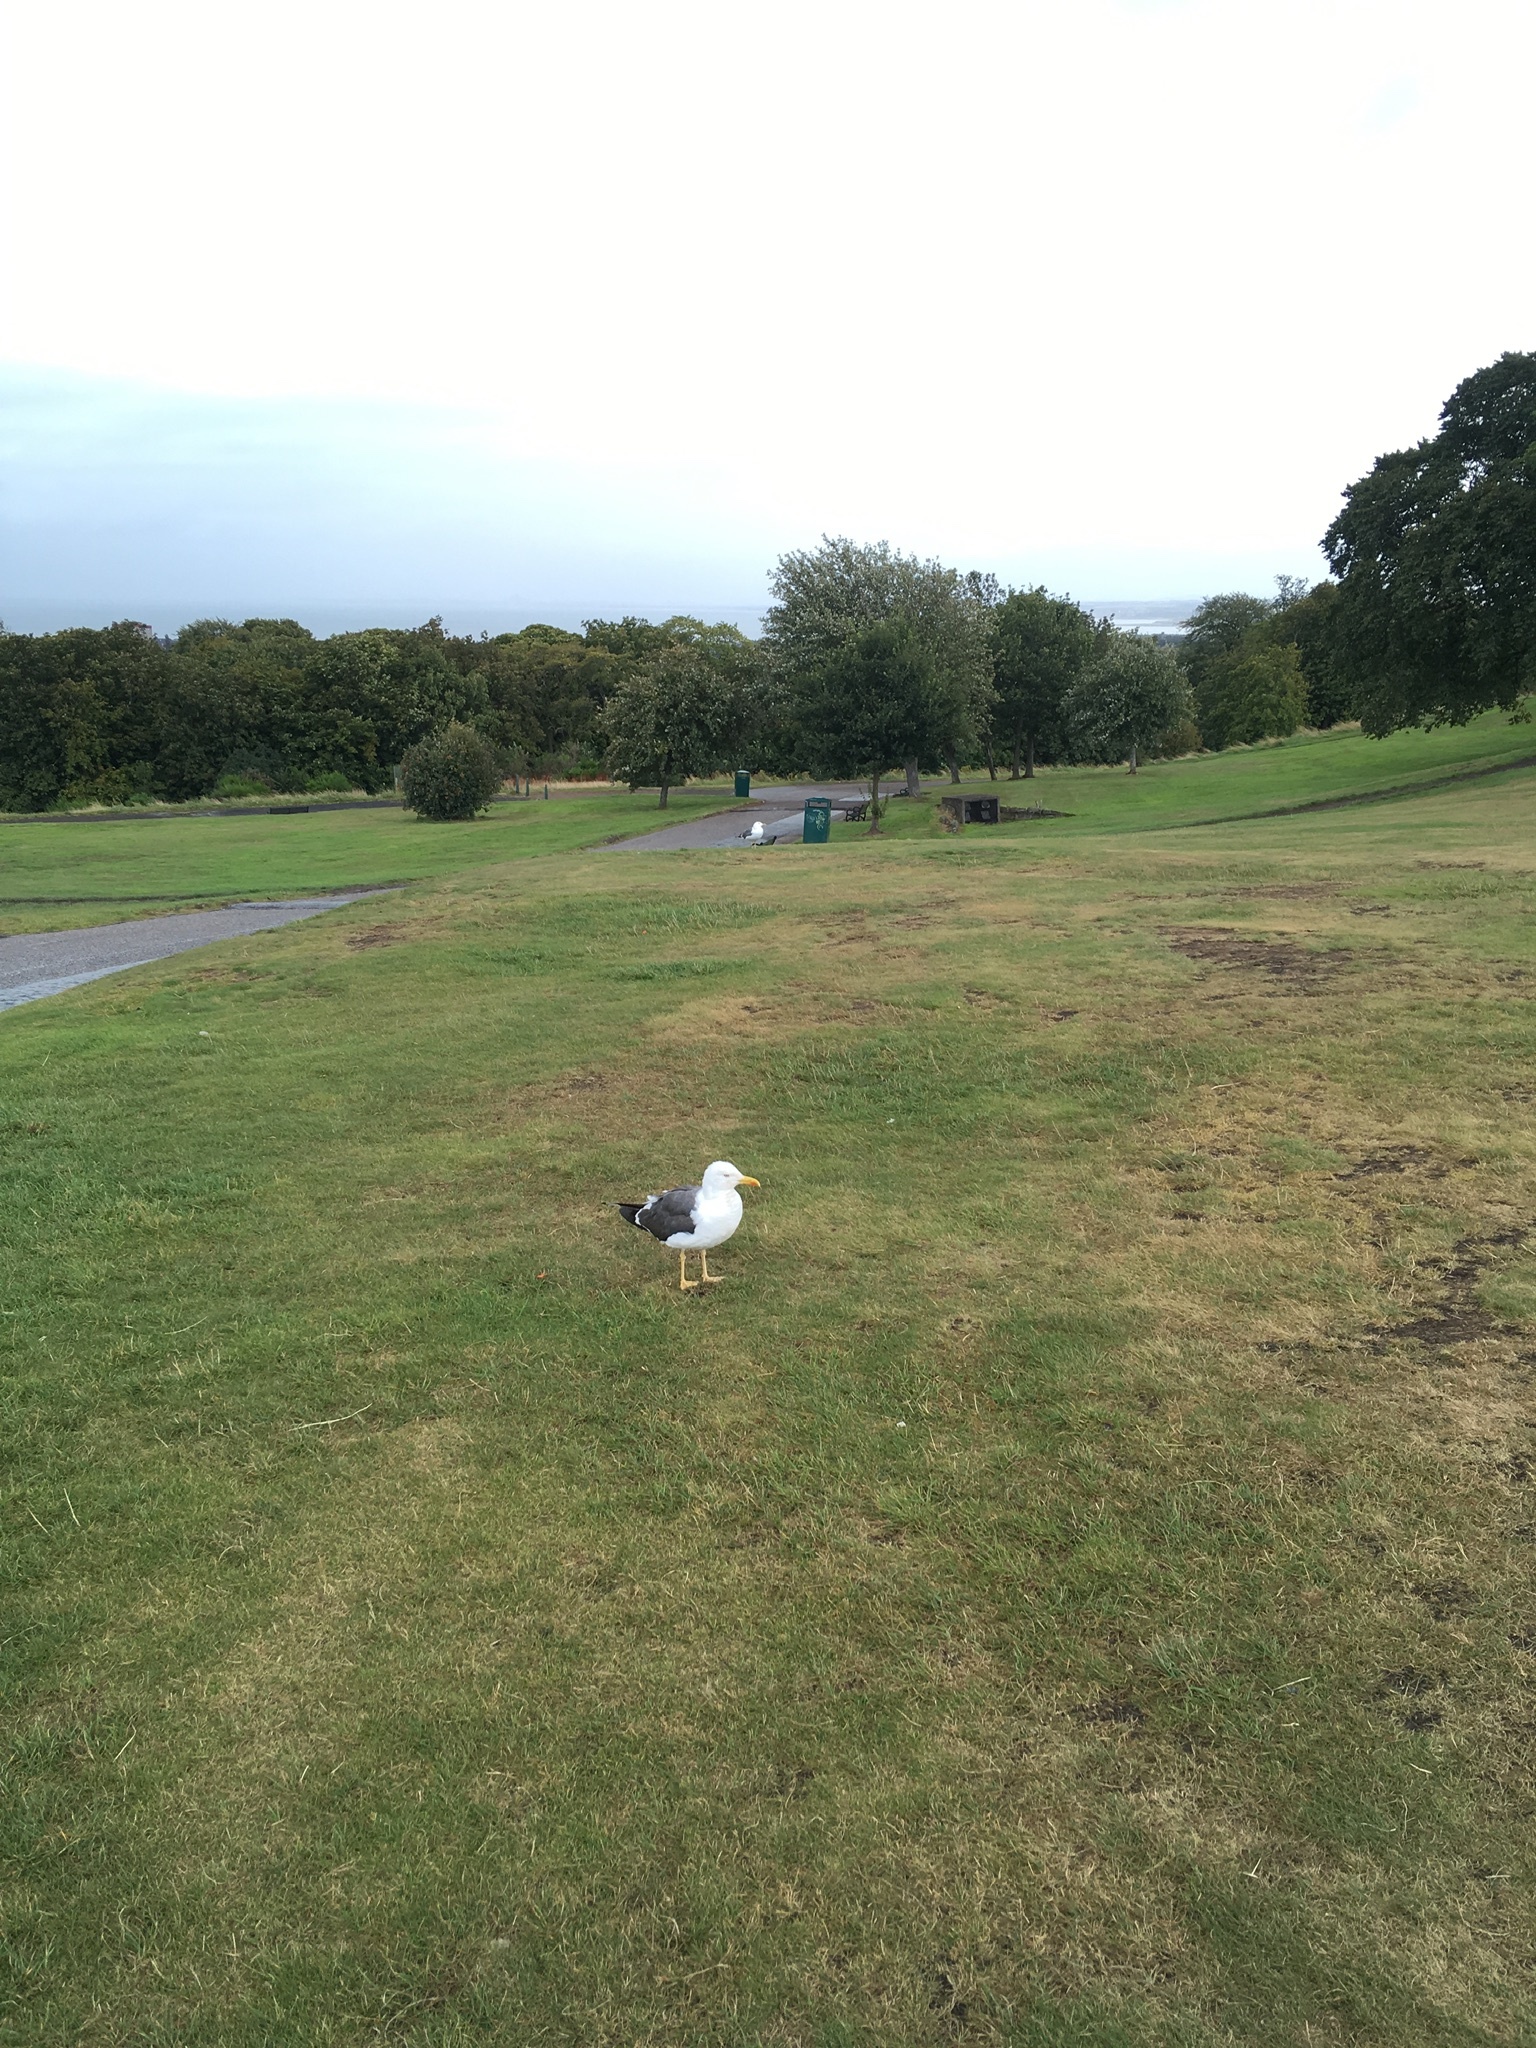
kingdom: Animalia
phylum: Chordata
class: Aves
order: Charadriiformes
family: Laridae
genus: Larus
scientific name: Larus fuscus
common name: Lesser black-backed gull
